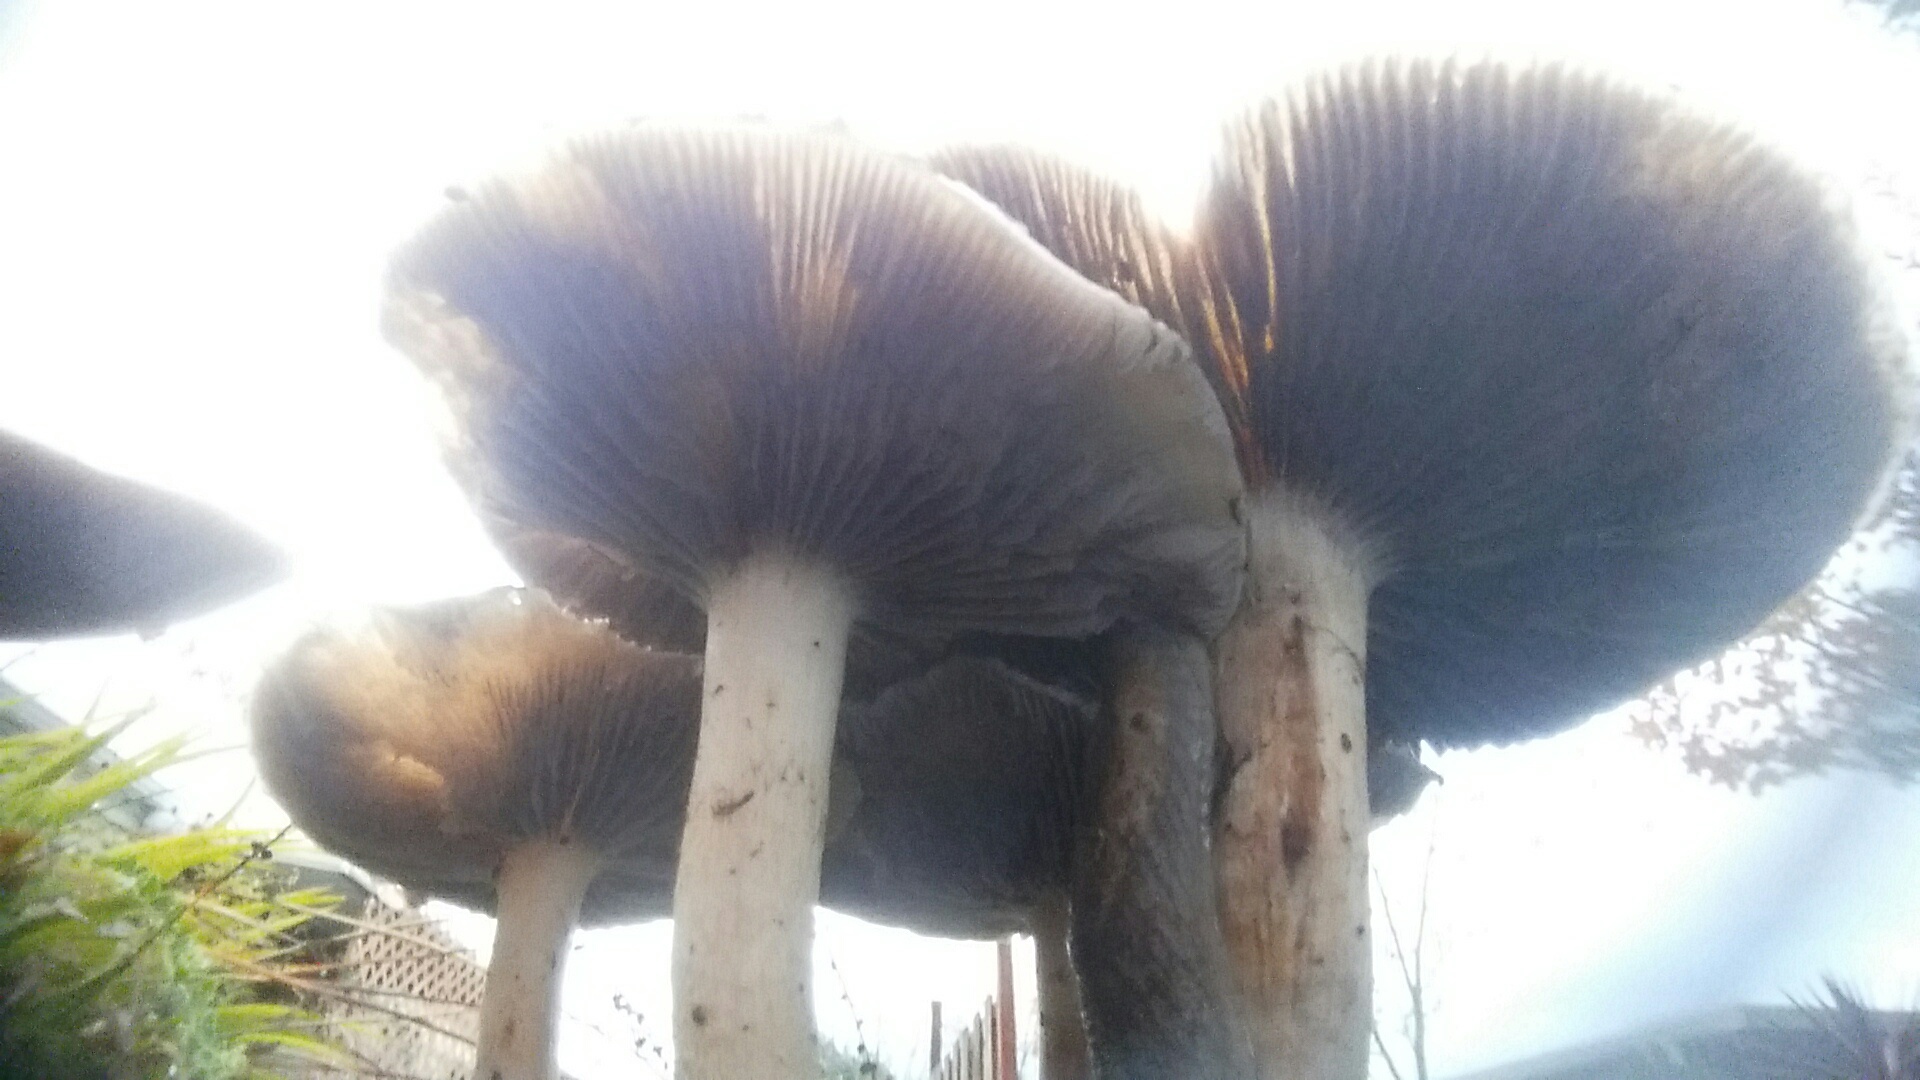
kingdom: Fungi
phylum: Basidiomycota
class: Agaricomycetes
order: Agaricales
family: Strophariaceae
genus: Leratiomyces
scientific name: Leratiomyces percevalii
